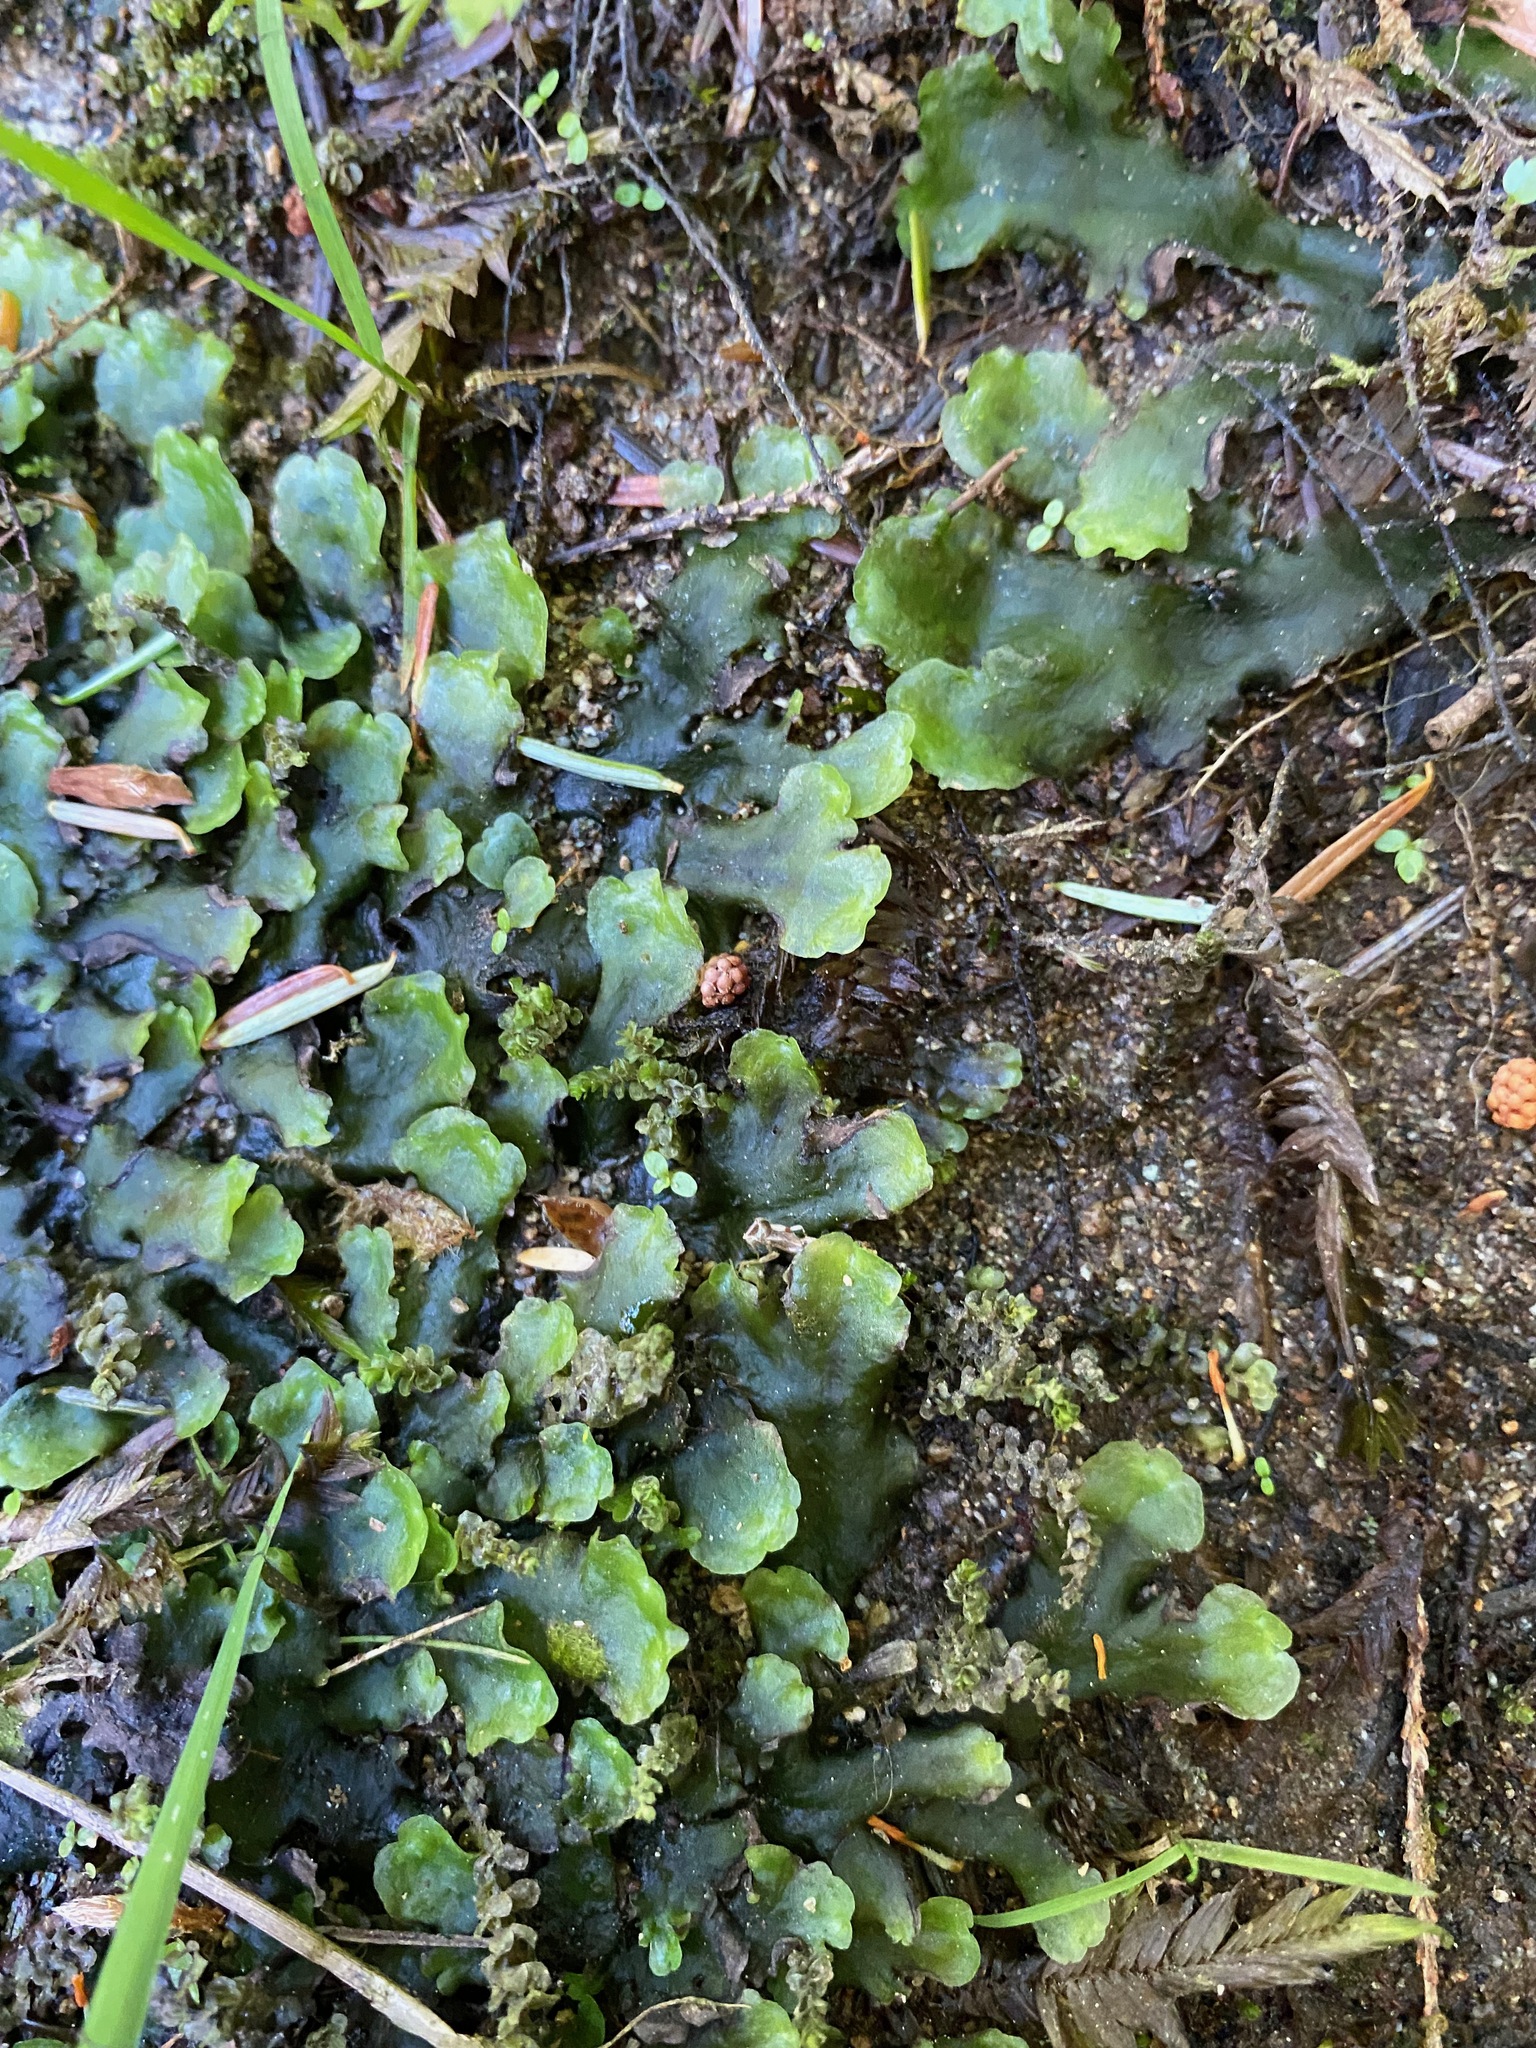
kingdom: Plantae
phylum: Marchantiophyta
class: Jungermanniopsida
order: Pelliales
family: Pelliaceae
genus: Pellia
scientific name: Pellia neesiana
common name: Nees  pellia
